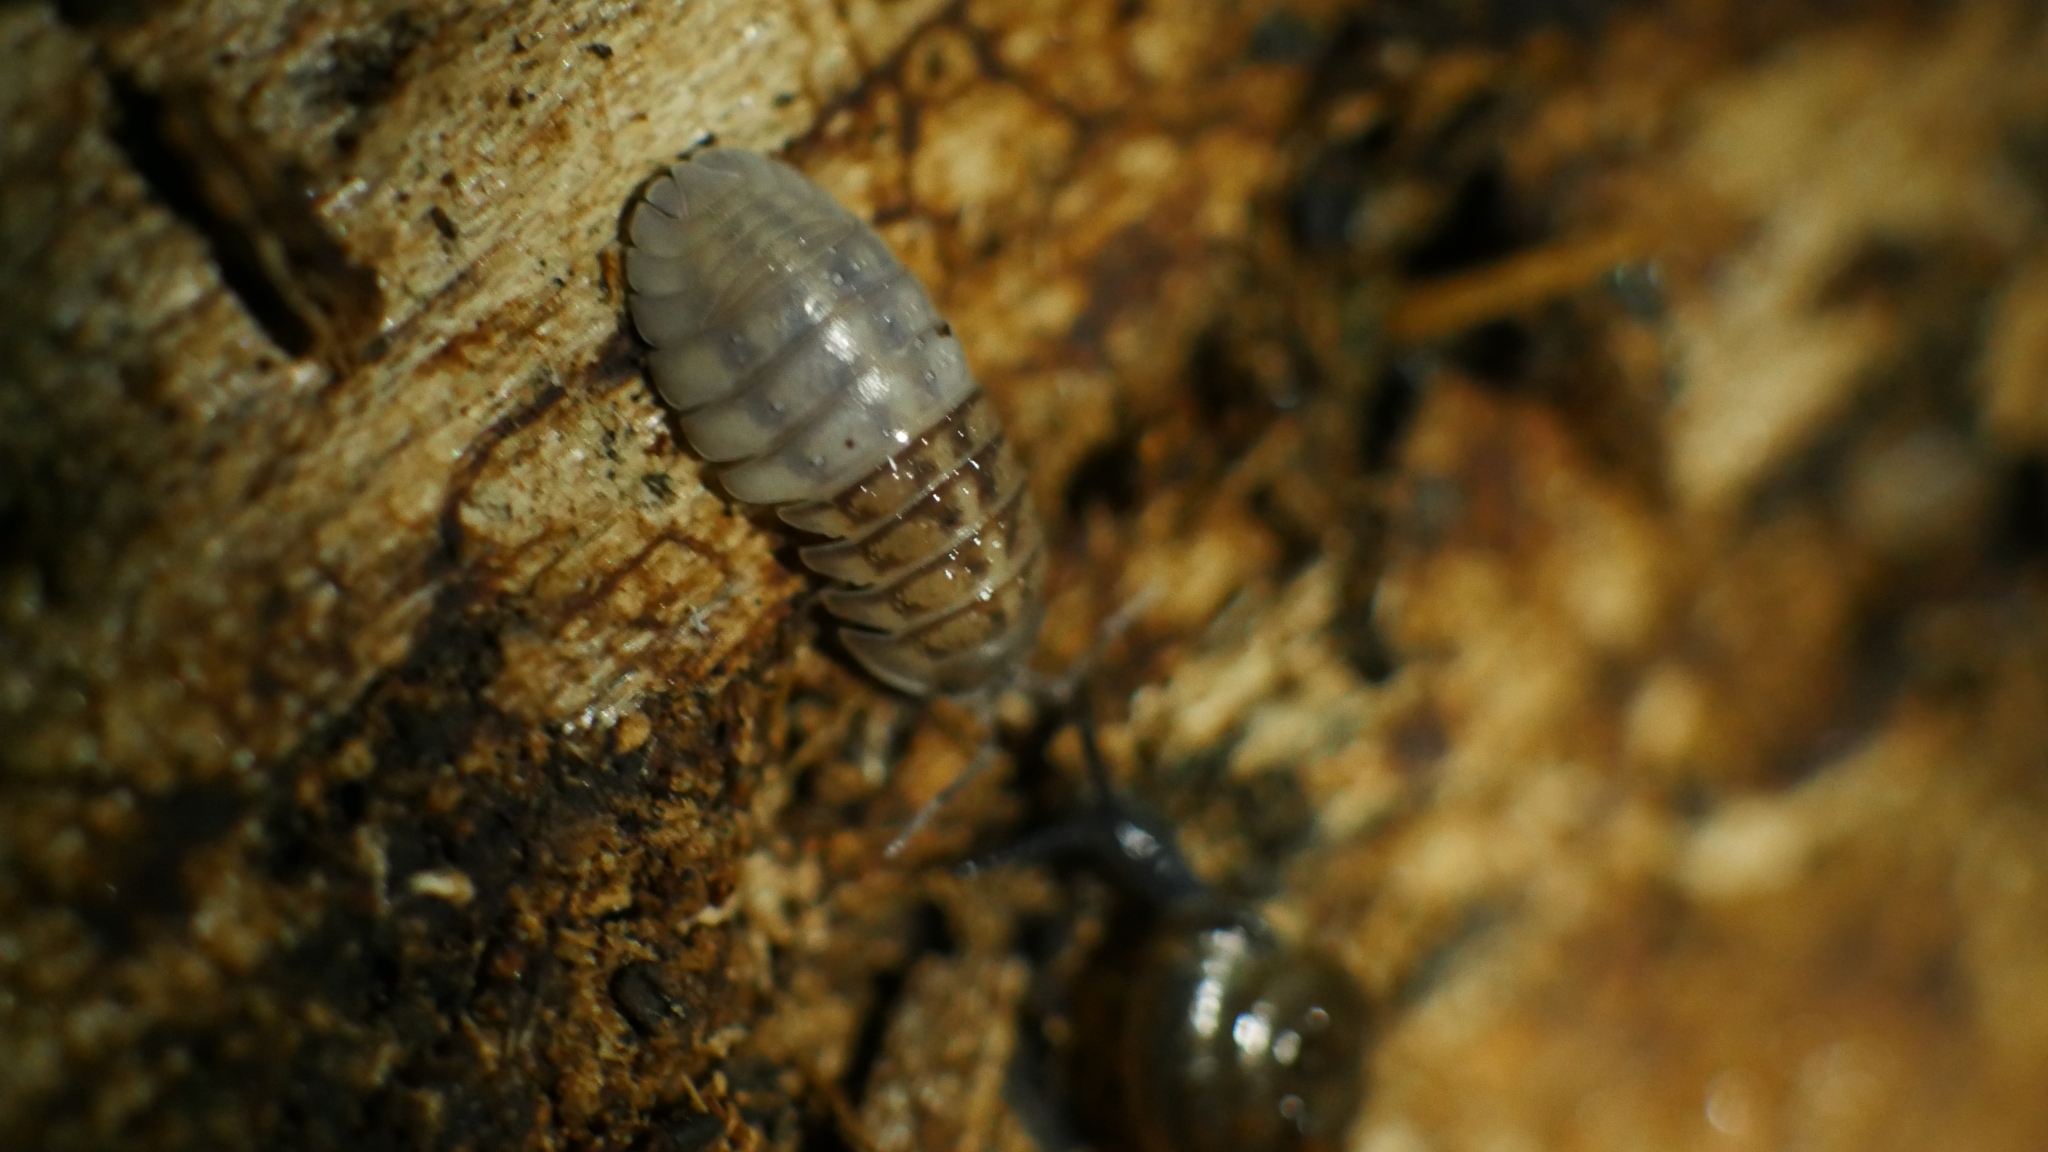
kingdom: Animalia
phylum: Arthropoda
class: Malacostraca
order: Isopoda
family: Armadillidiidae
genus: Armadillidium
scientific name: Armadillidium nasatum
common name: Isopod
